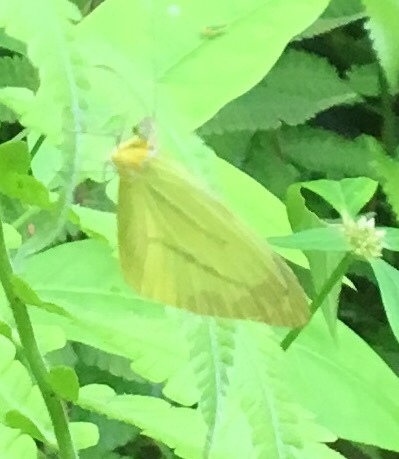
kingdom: Animalia
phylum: Arthropoda
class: Insecta
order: Lepidoptera
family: Pieridae
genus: Enantia
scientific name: Enantia lina
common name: White mimic-white
